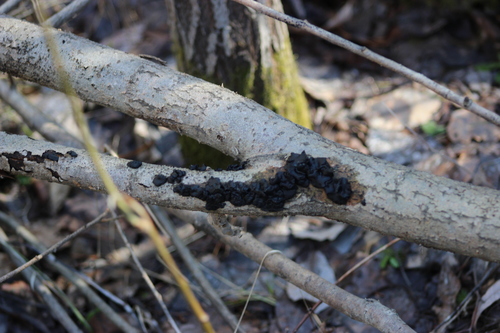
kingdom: Fungi
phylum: Basidiomycota
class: Agaricomycetes
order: Auriculariales
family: Auriculariaceae
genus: Exidia
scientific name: Exidia glandulosa
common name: Witches' butter
